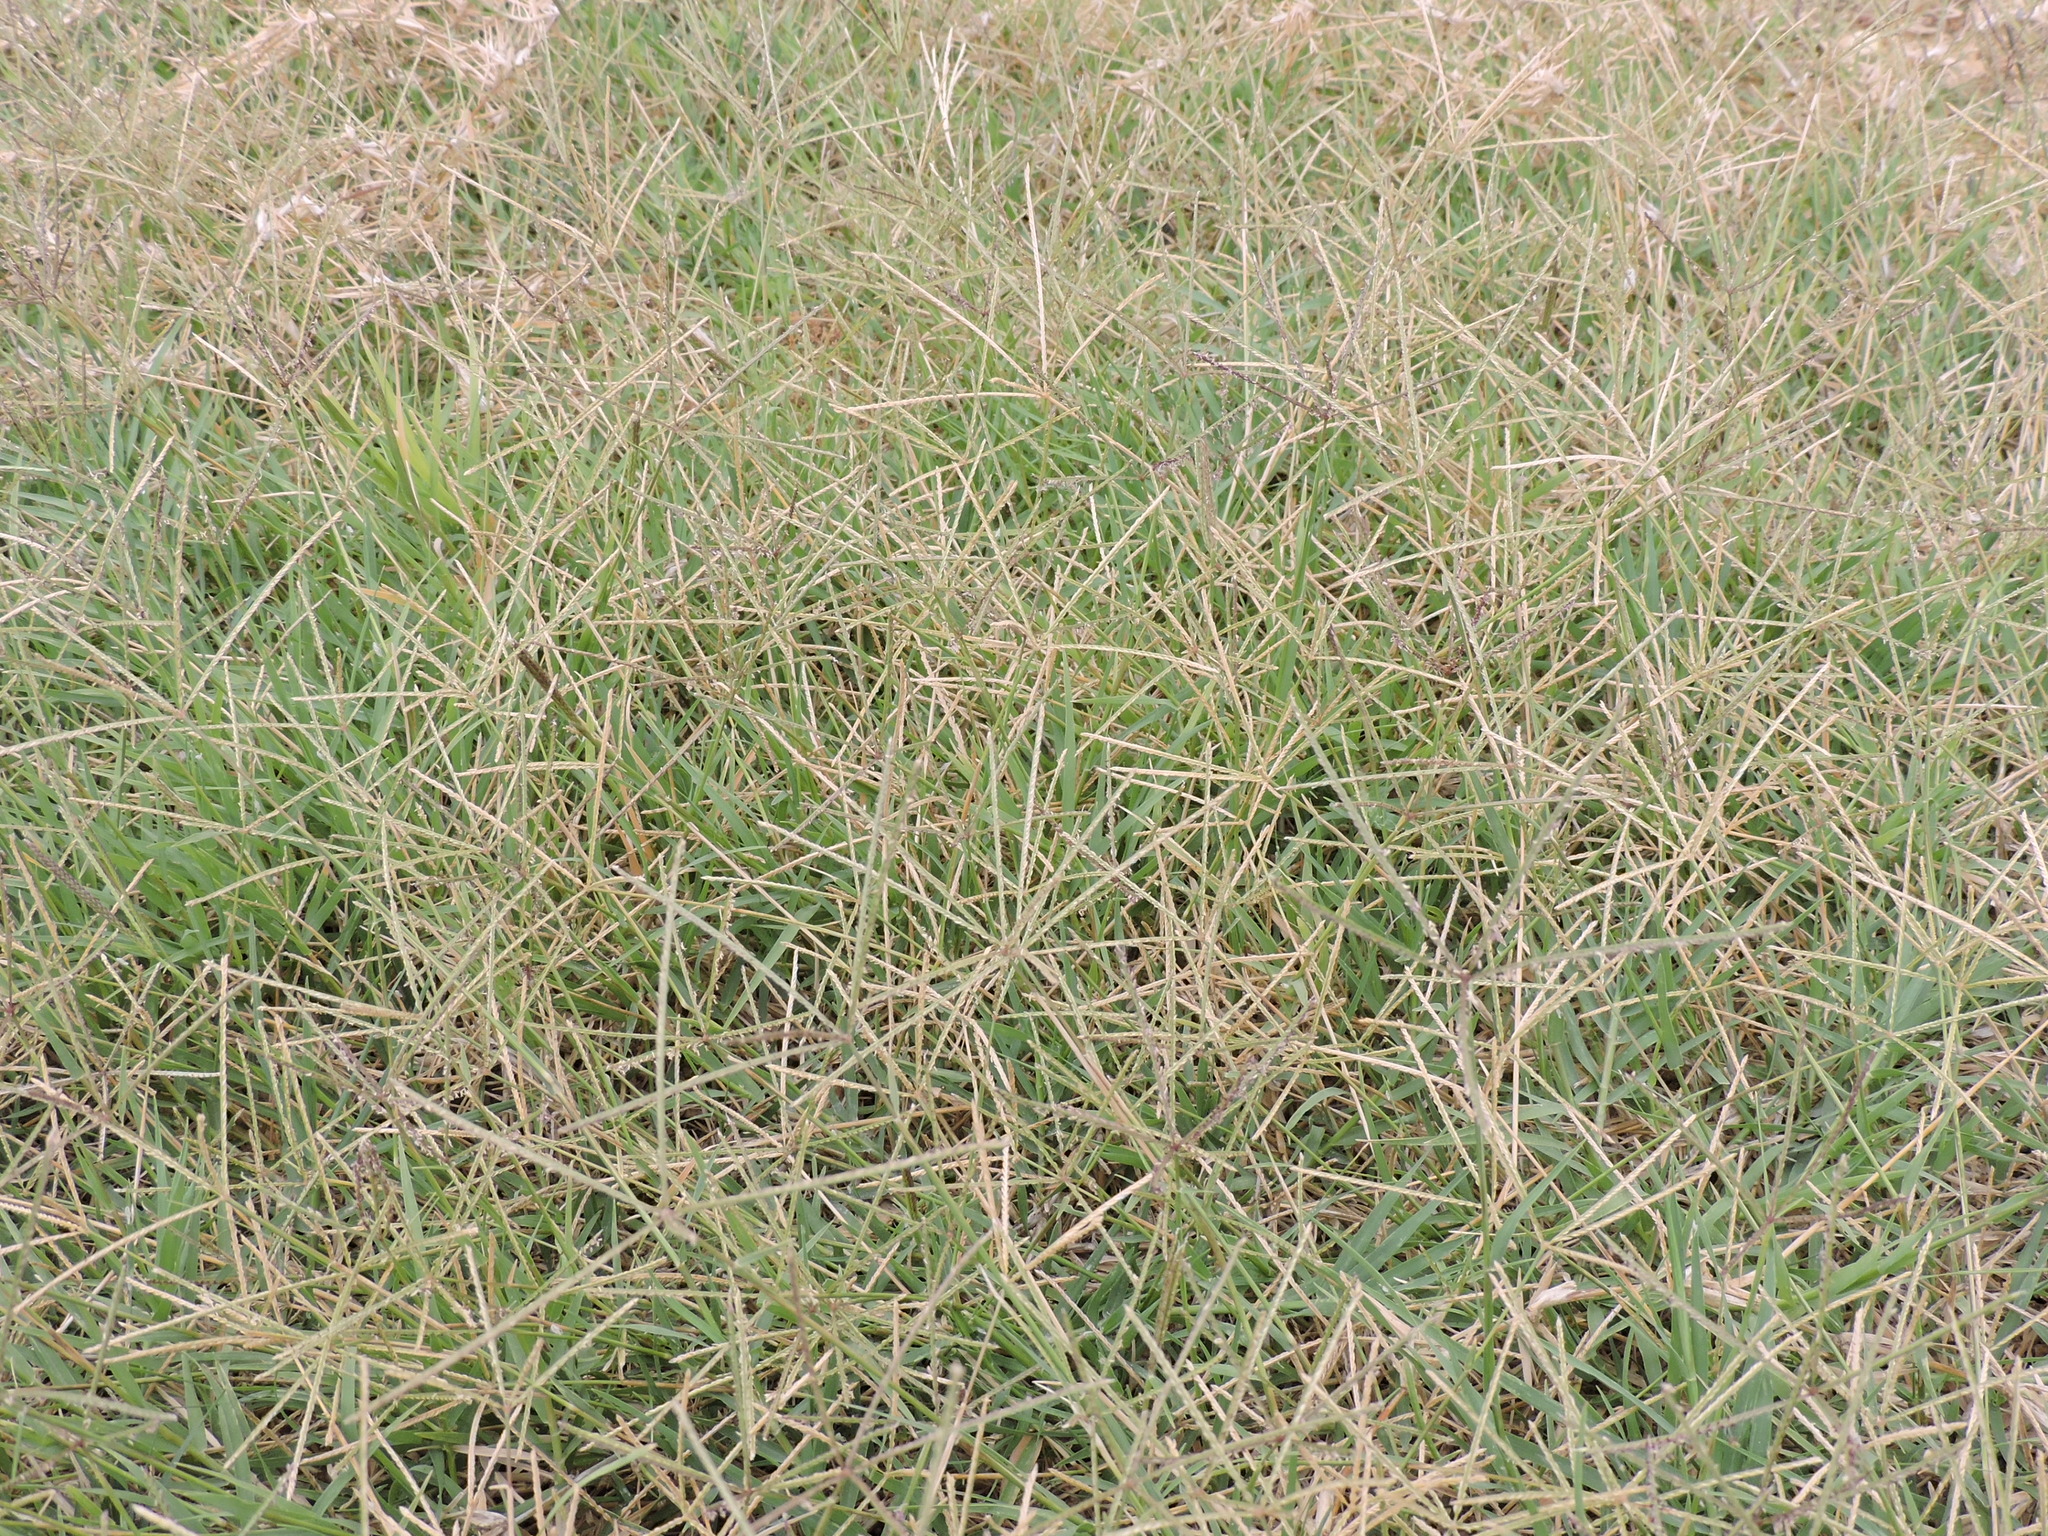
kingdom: Plantae
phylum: Tracheophyta
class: Liliopsida
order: Poales
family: Poaceae
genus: Cynodon
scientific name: Cynodon dactylon
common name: Bermuda grass
